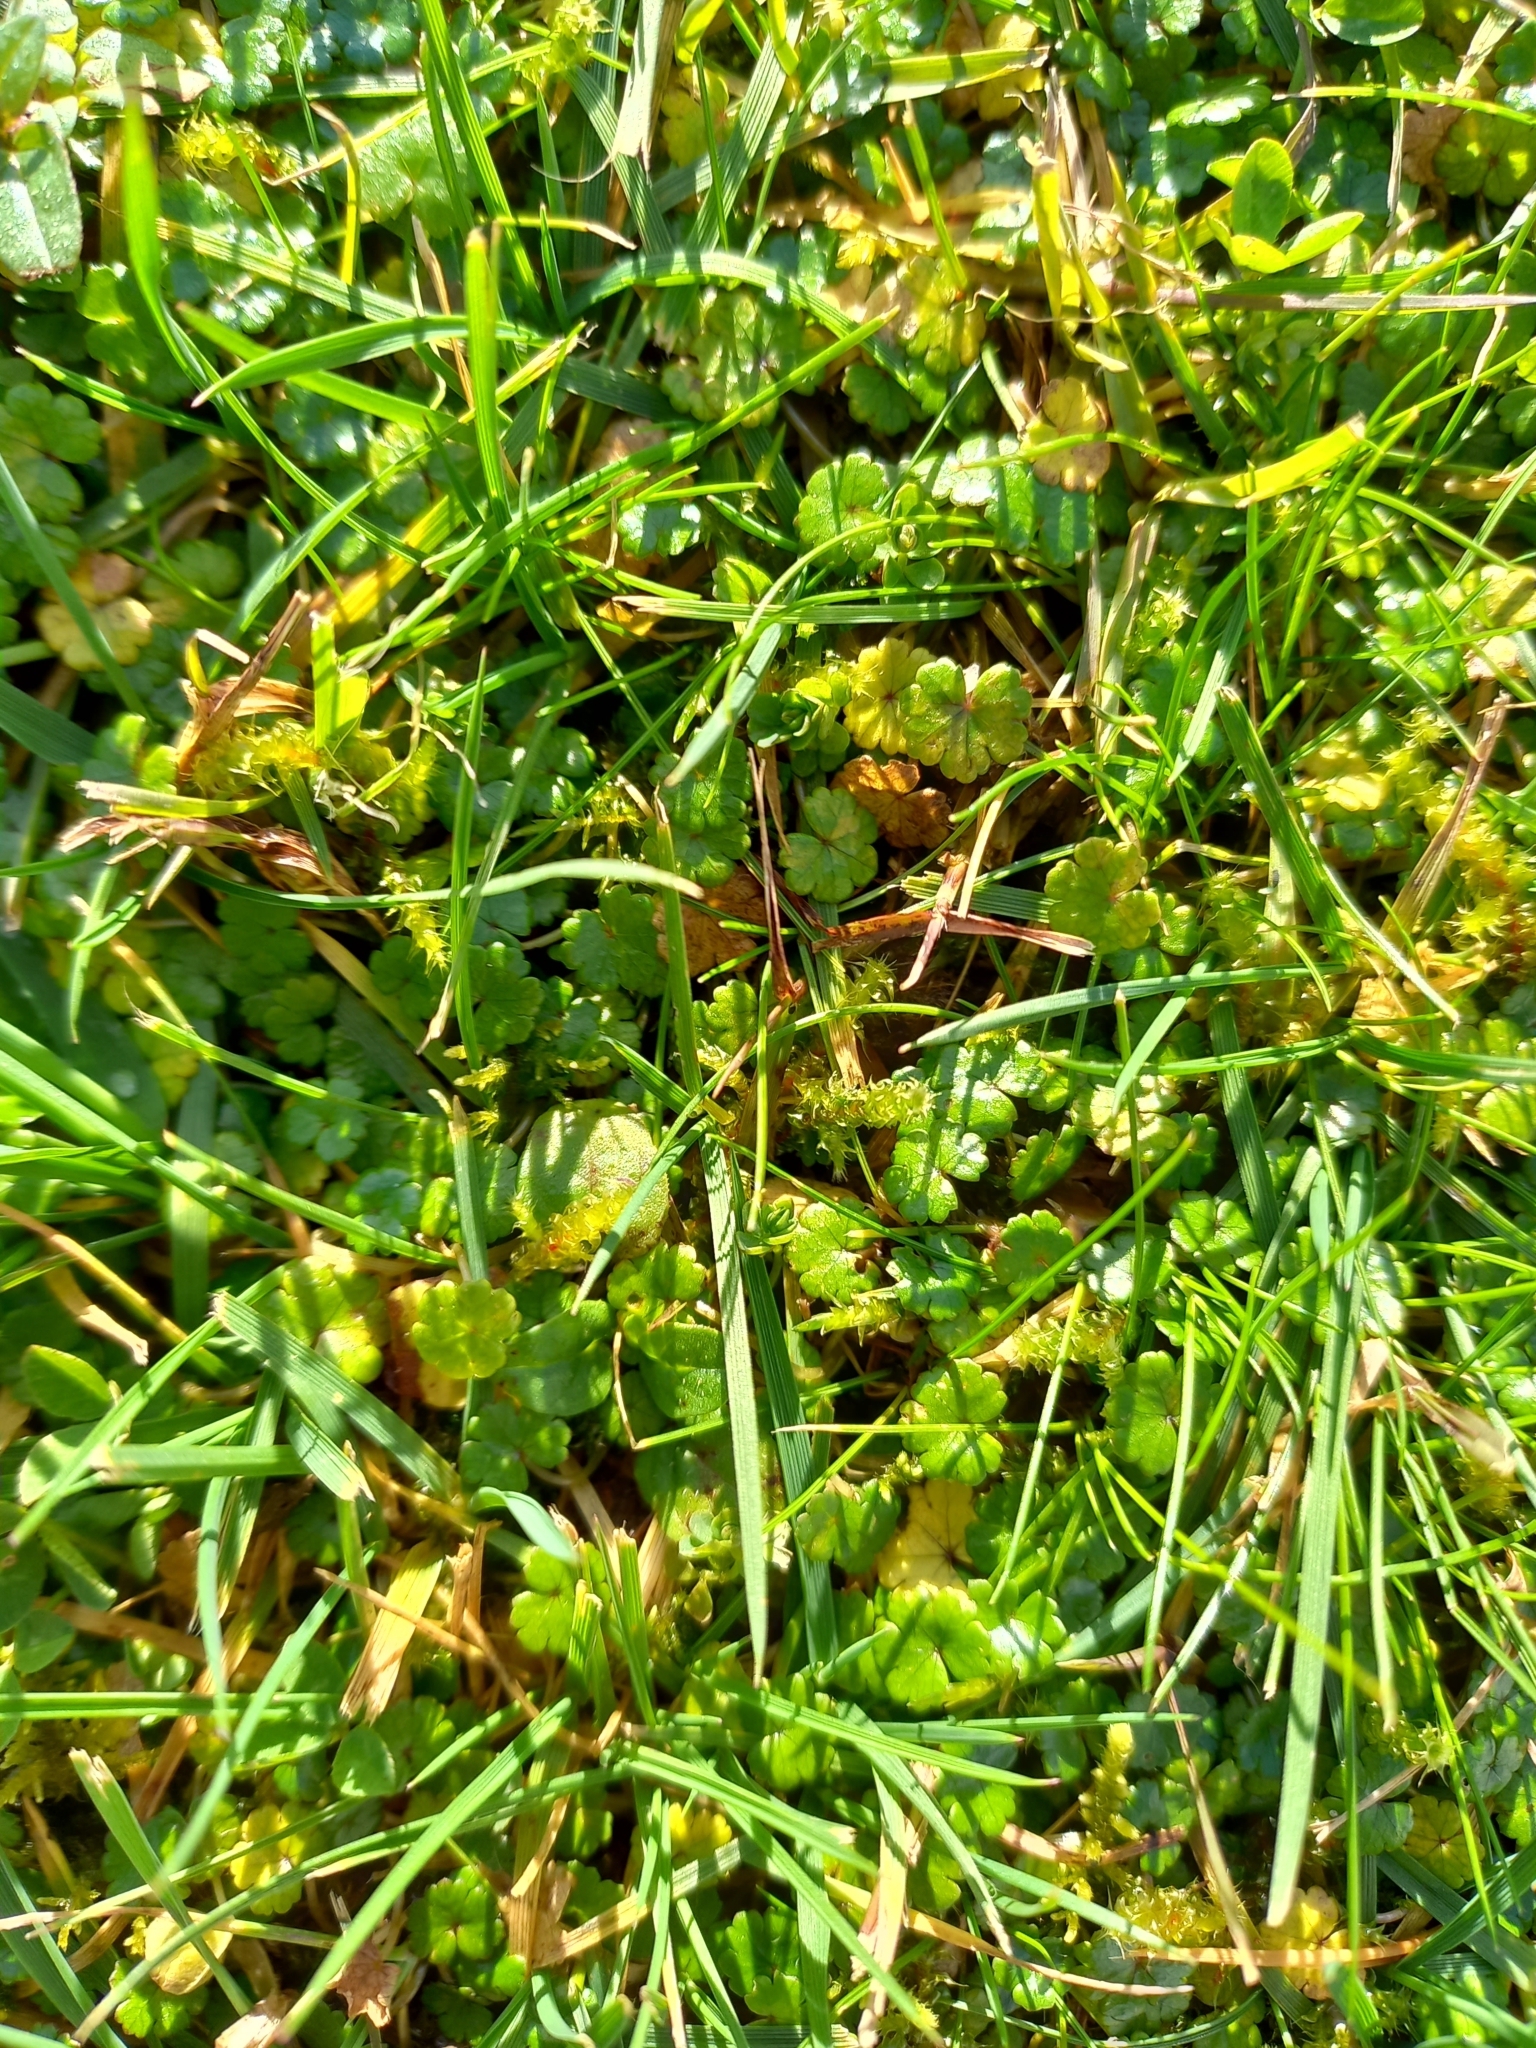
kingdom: Plantae
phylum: Tracheophyta
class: Magnoliopsida
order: Apiales
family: Araliaceae
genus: Hydrocotyle
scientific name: Hydrocotyle microphylla
